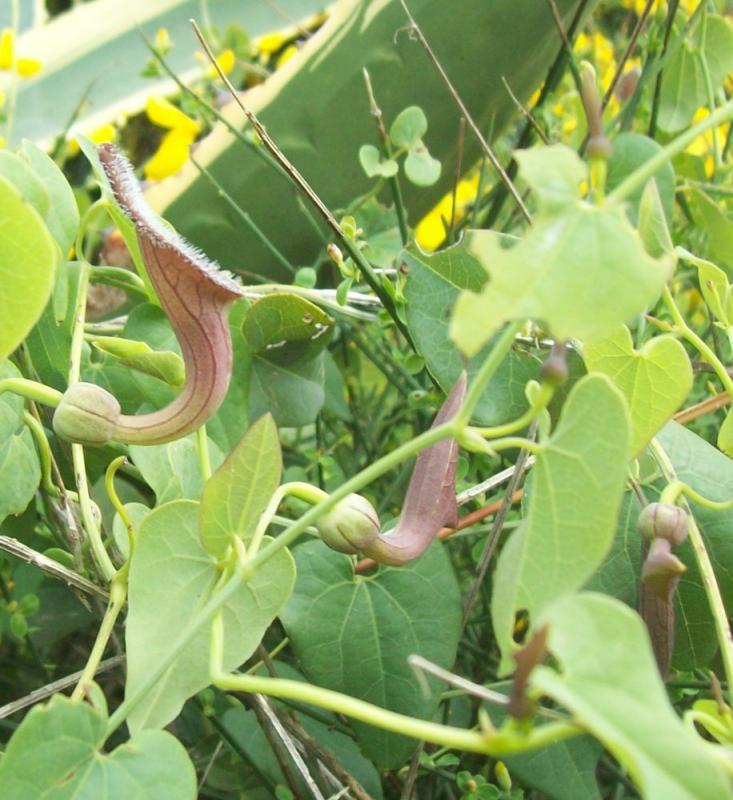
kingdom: Plantae
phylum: Tracheophyta
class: Magnoliopsida
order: Piperales
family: Aristolochiaceae
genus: Aristolochia
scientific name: Aristolochia baetica
